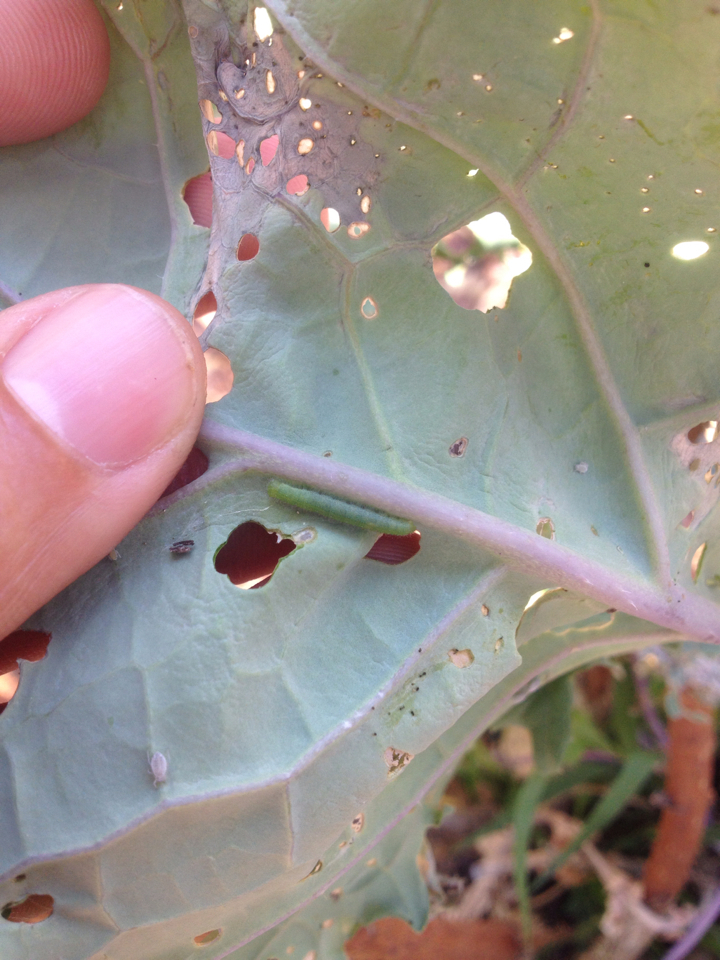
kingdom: Animalia
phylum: Arthropoda
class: Insecta
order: Lepidoptera
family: Pieridae
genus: Pieris
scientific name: Pieris rapae
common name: Small white
